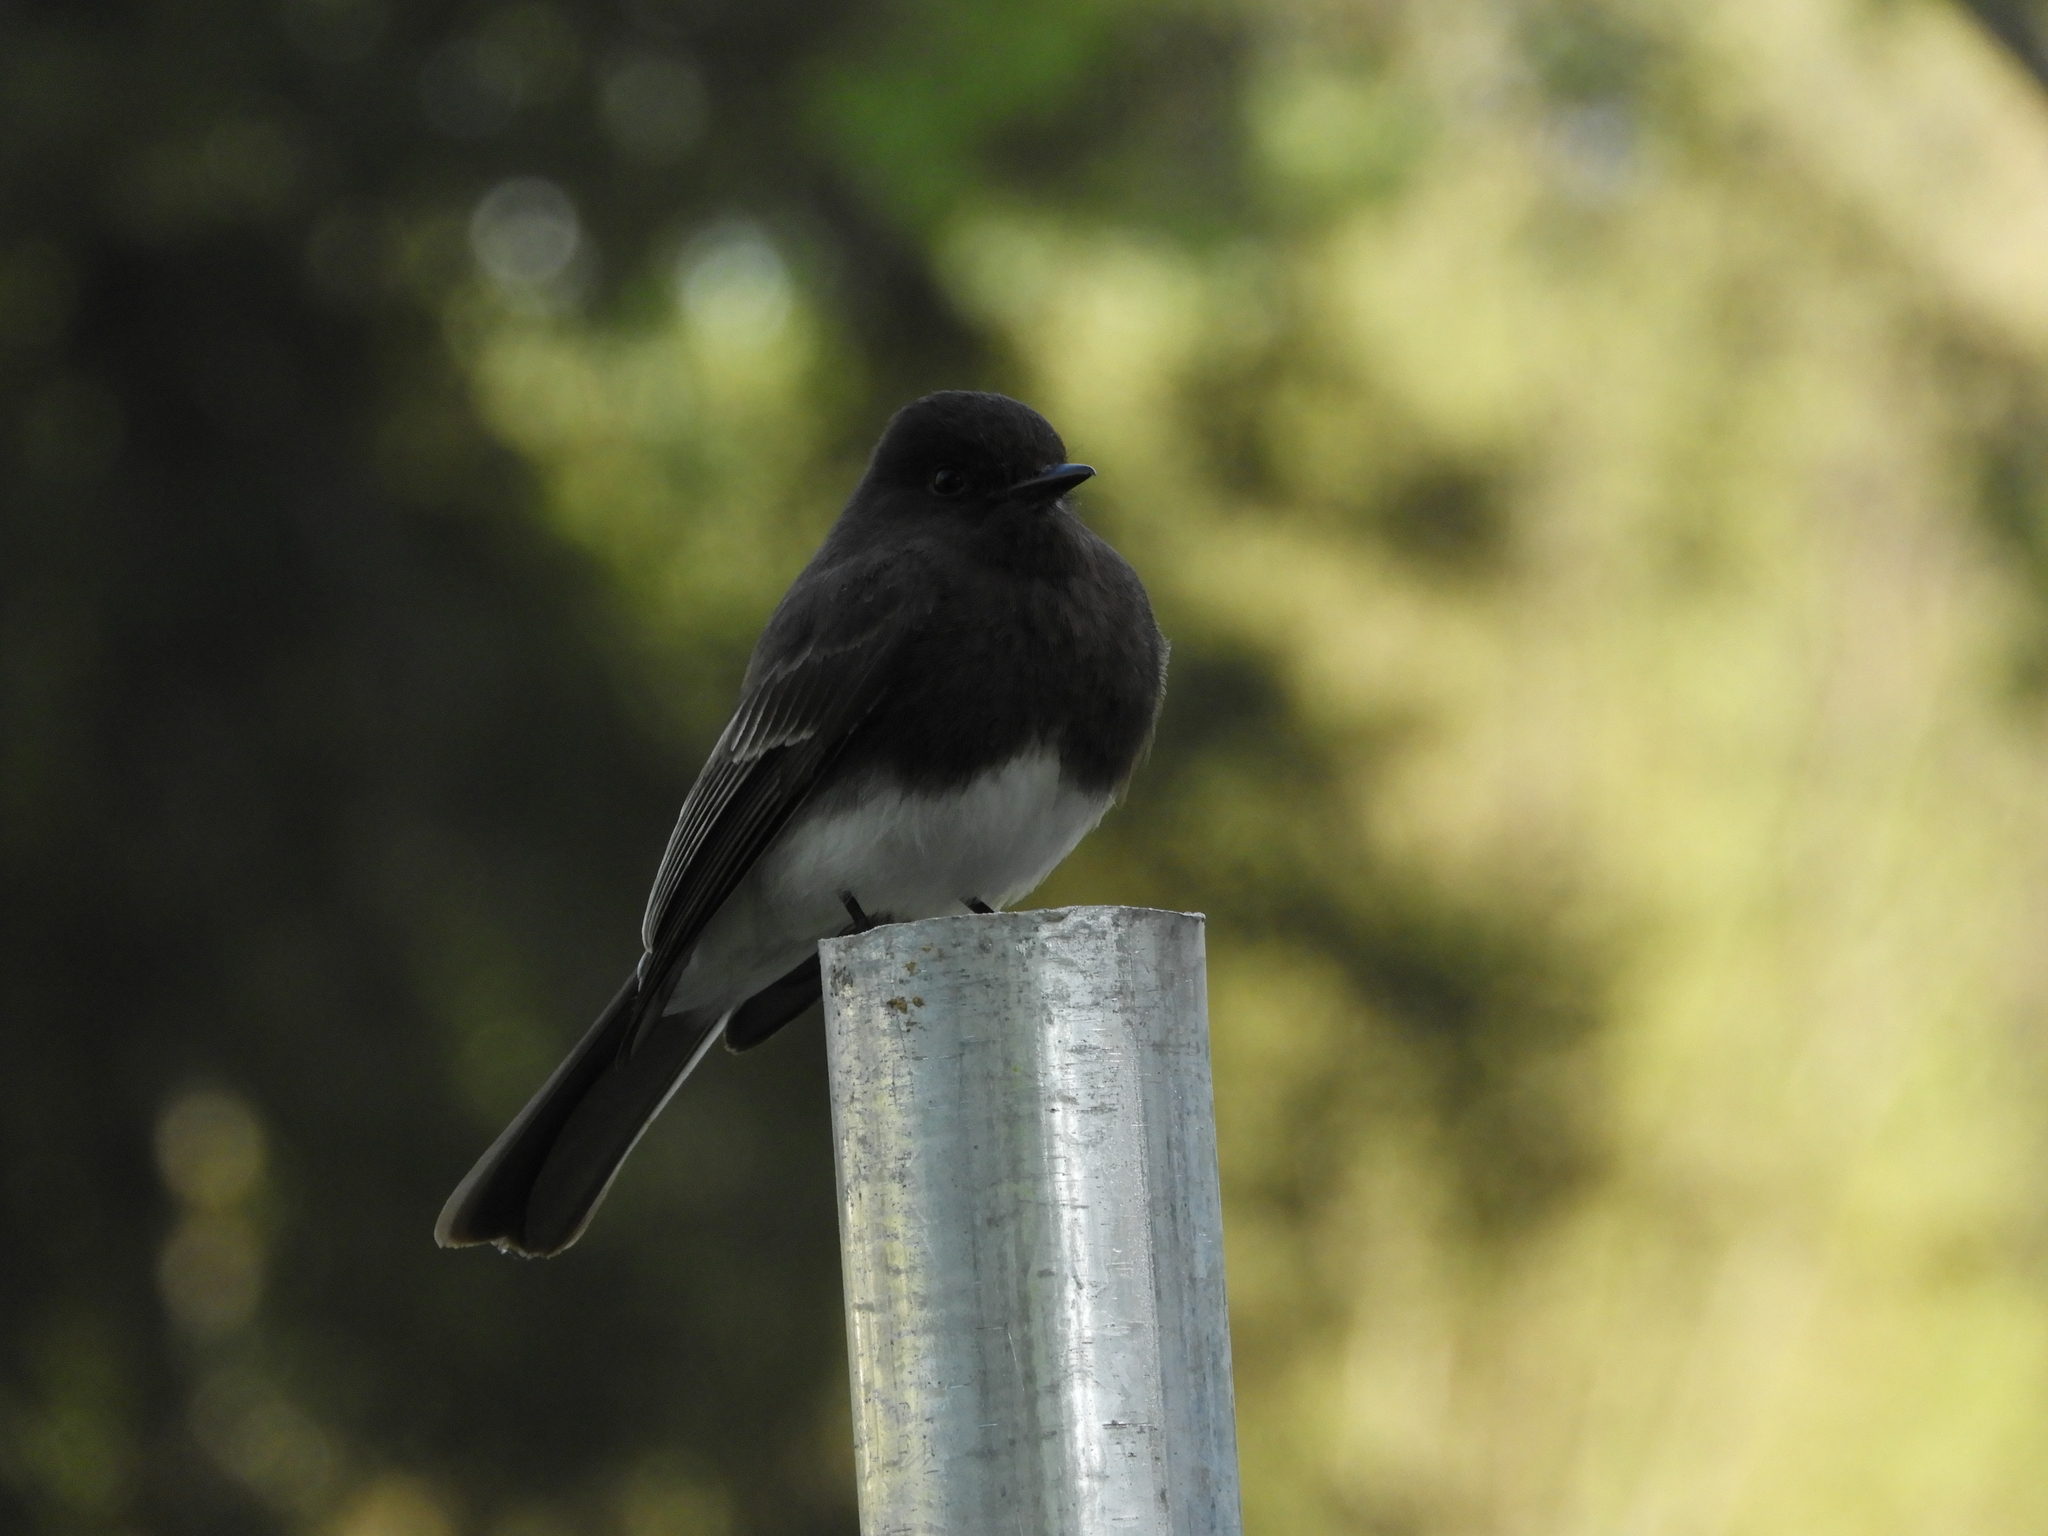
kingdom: Animalia
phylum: Chordata
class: Aves
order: Passeriformes
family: Tyrannidae
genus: Sayornis
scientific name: Sayornis nigricans
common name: Black phoebe
